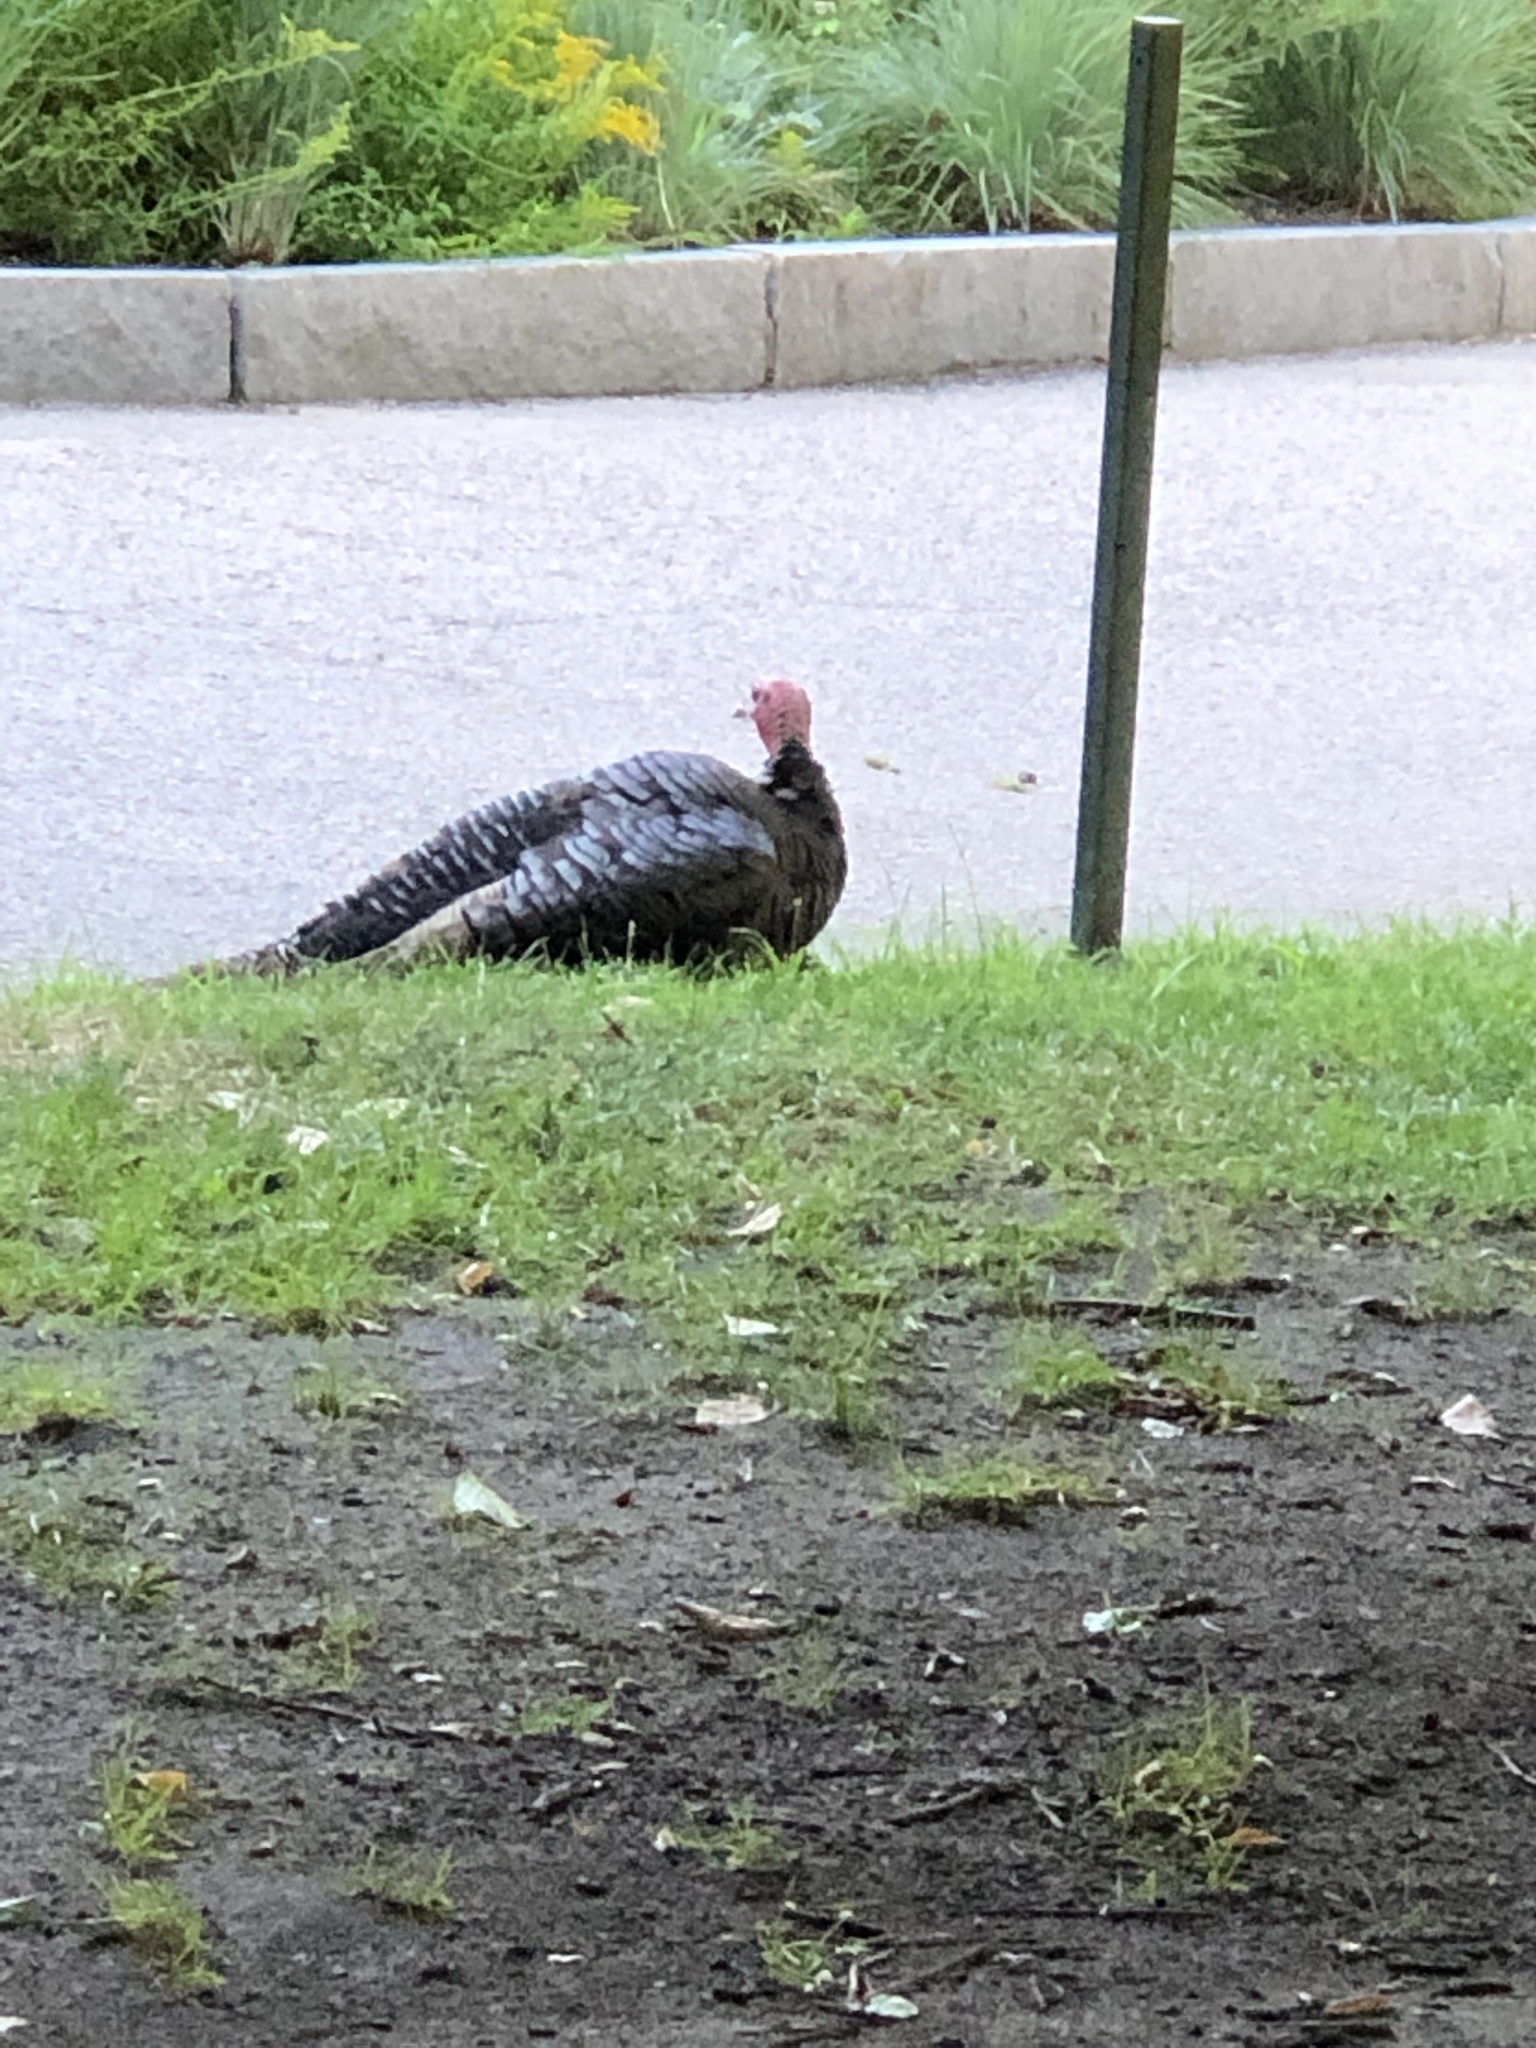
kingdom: Animalia
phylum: Chordata
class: Aves
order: Galliformes
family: Phasianidae
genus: Meleagris
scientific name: Meleagris gallopavo
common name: Wild turkey
